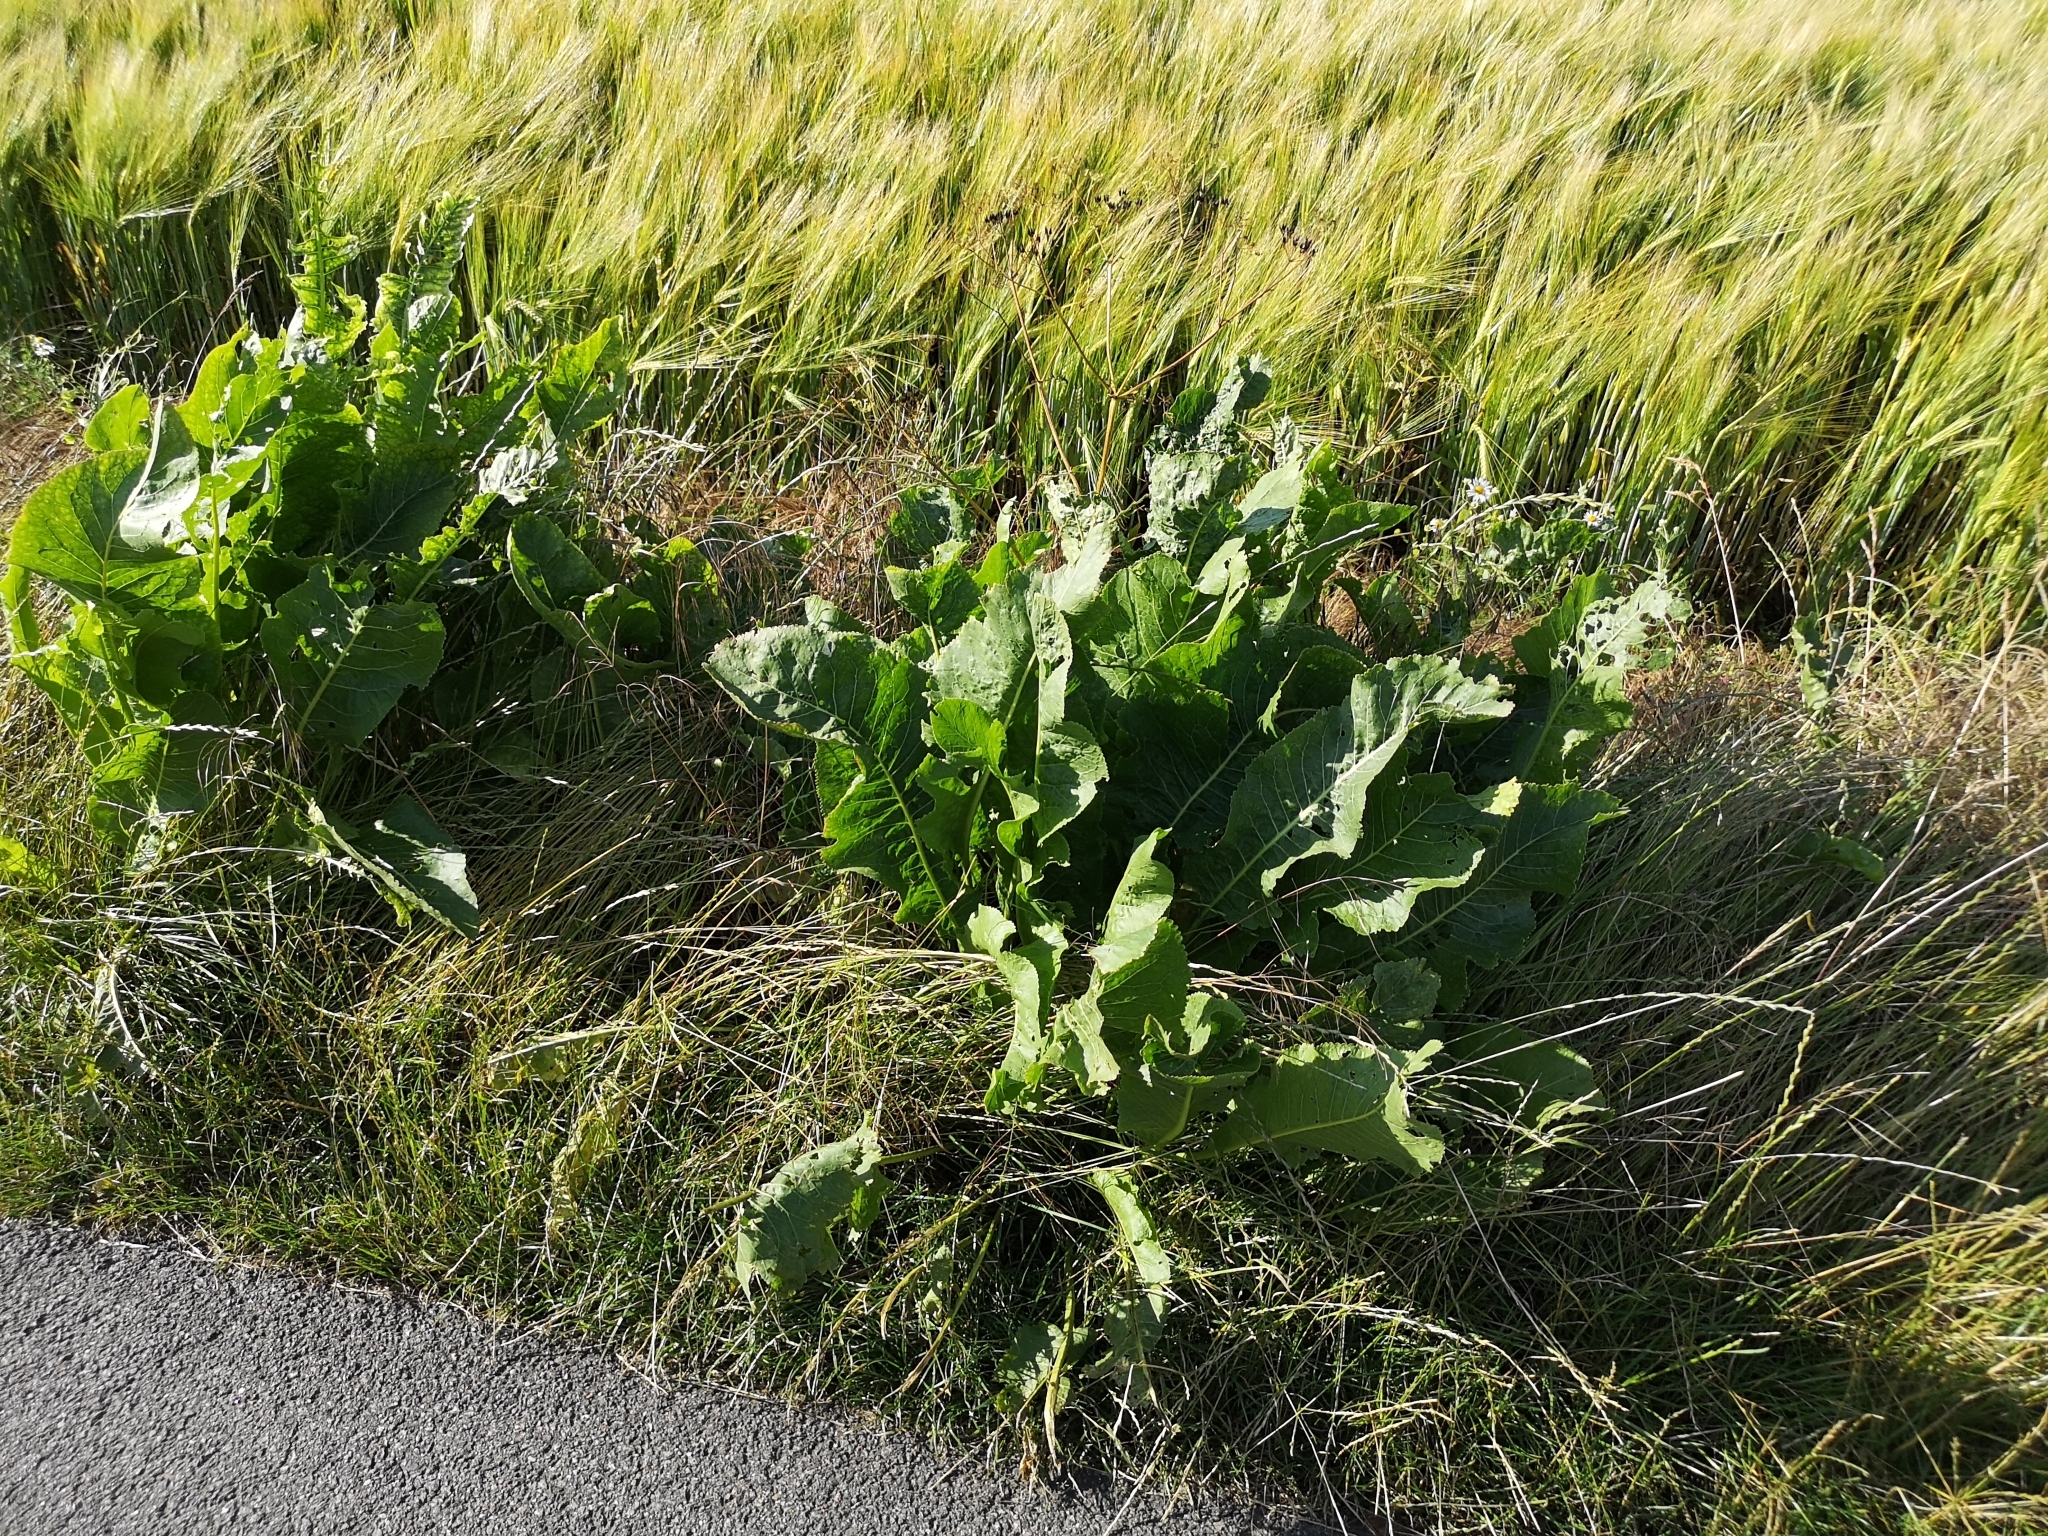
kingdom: Plantae
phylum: Tracheophyta
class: Magnoliopsida
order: Brassicales
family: Brassicaceae
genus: Armoracia
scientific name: Armoracia rusticana
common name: Horseradish
